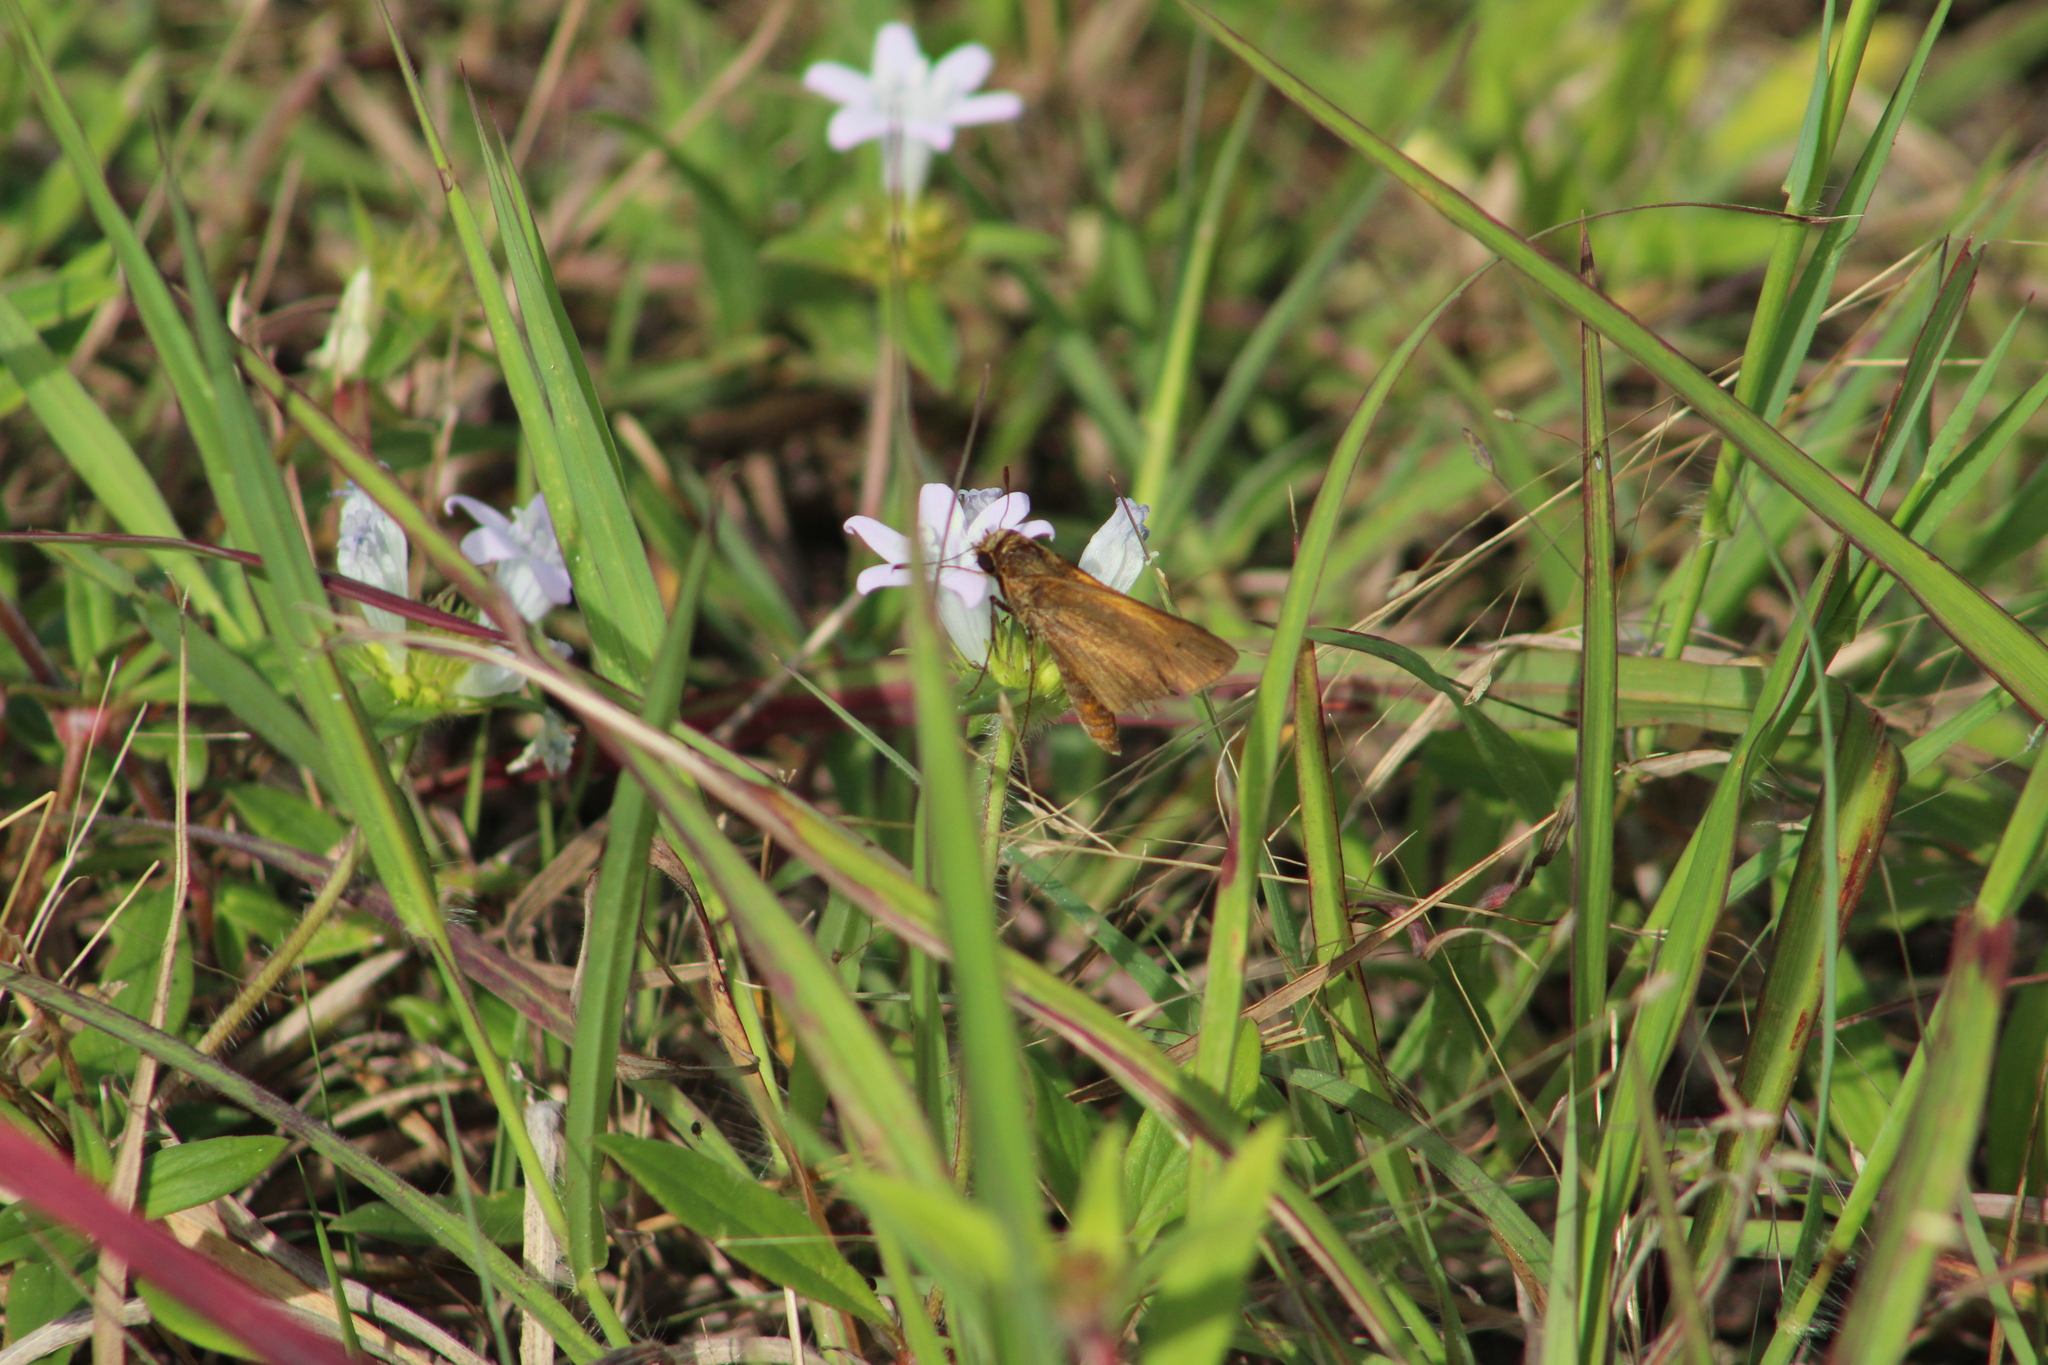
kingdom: Animalia
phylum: Arthropoda
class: Insecta
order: Lepidoptera
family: Hesperiidae
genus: Euphyes
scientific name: Euphyes pilatka
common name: Palatka skipper
